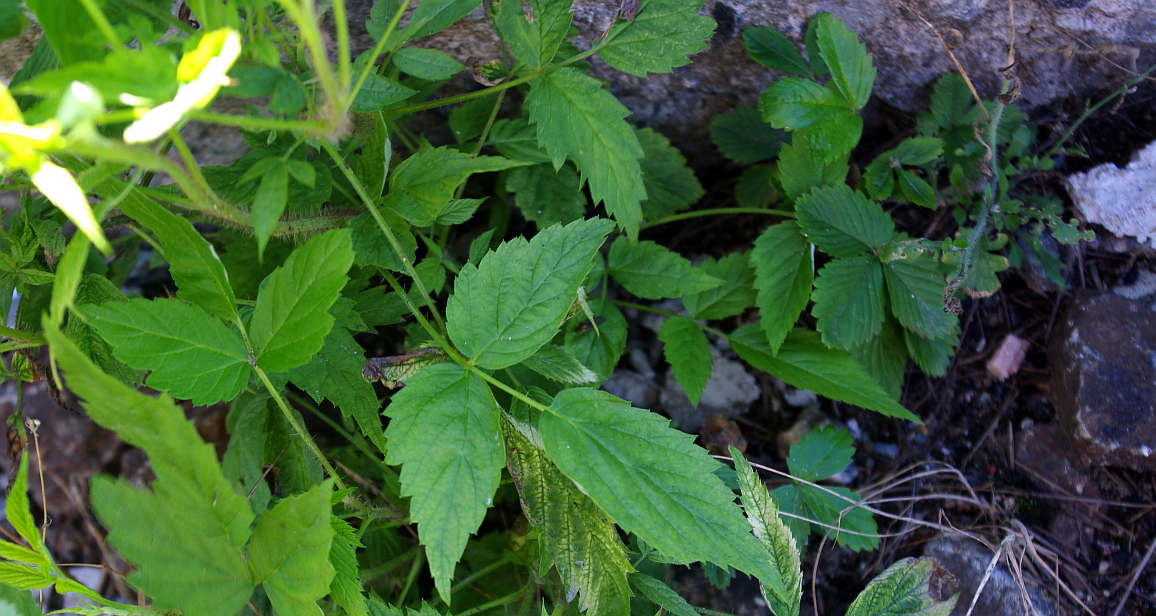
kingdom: Plantae
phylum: Tracheophyta
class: Magnoliopsida
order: Rosales
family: Rosaceae
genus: Rubus
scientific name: Rubus idaeus
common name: Raspberry
